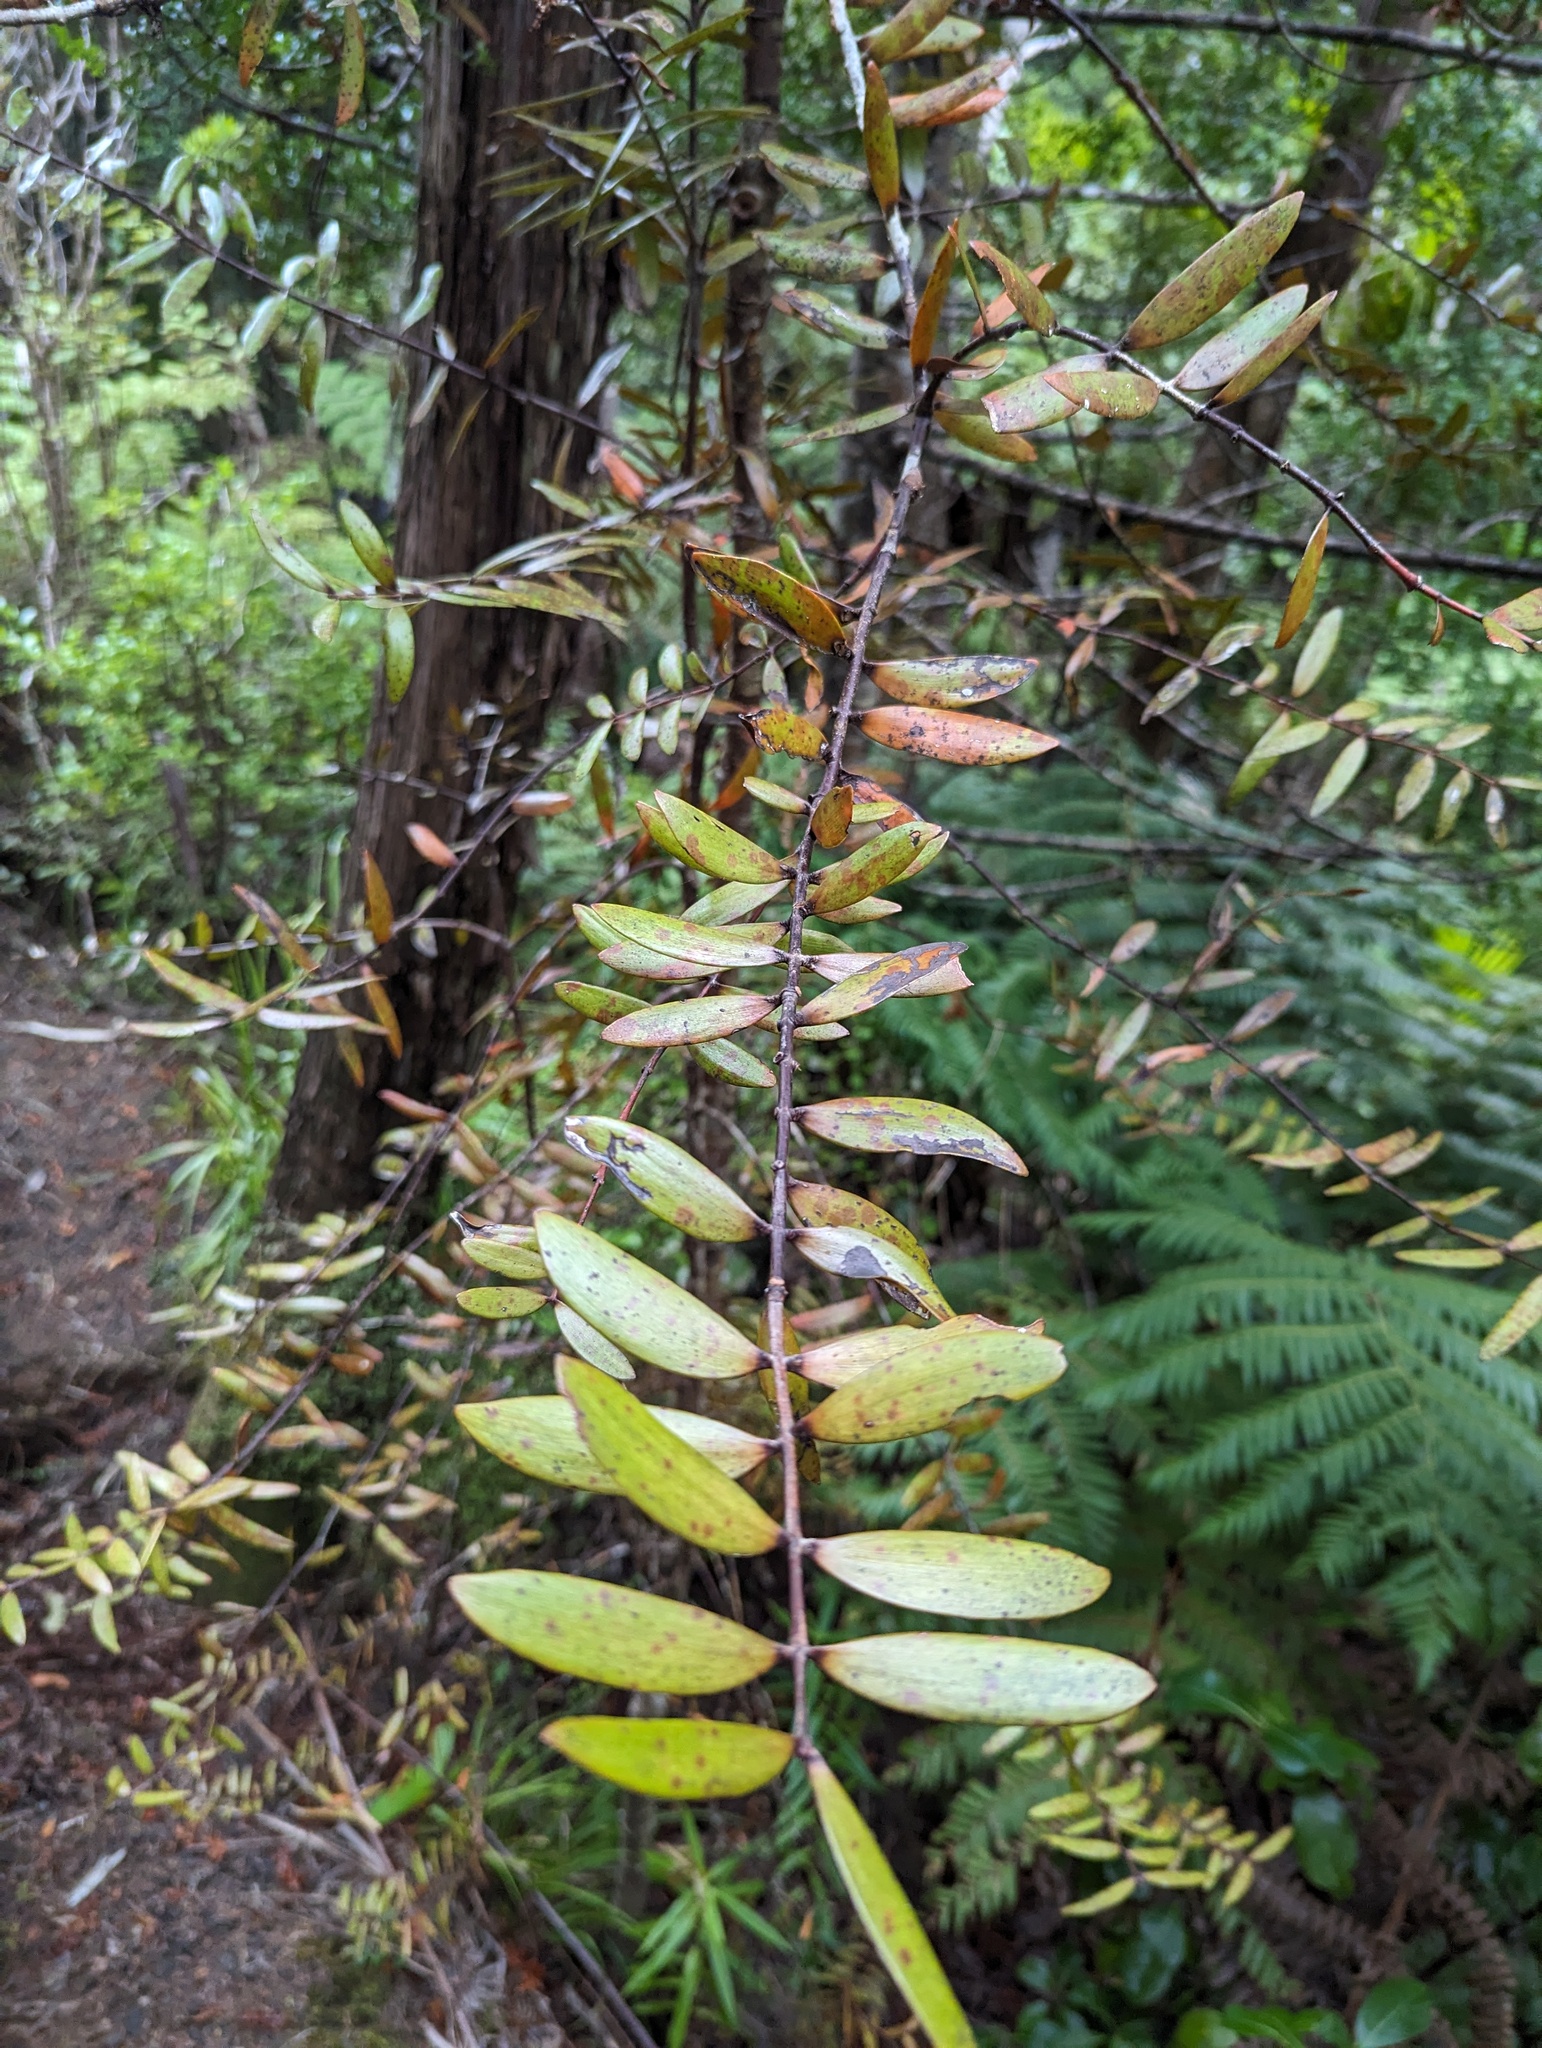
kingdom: Plantae
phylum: Tracheophyta
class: Pinopsida
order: Pinales
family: Araucariaceae
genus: Agathis
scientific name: Agathis australis
